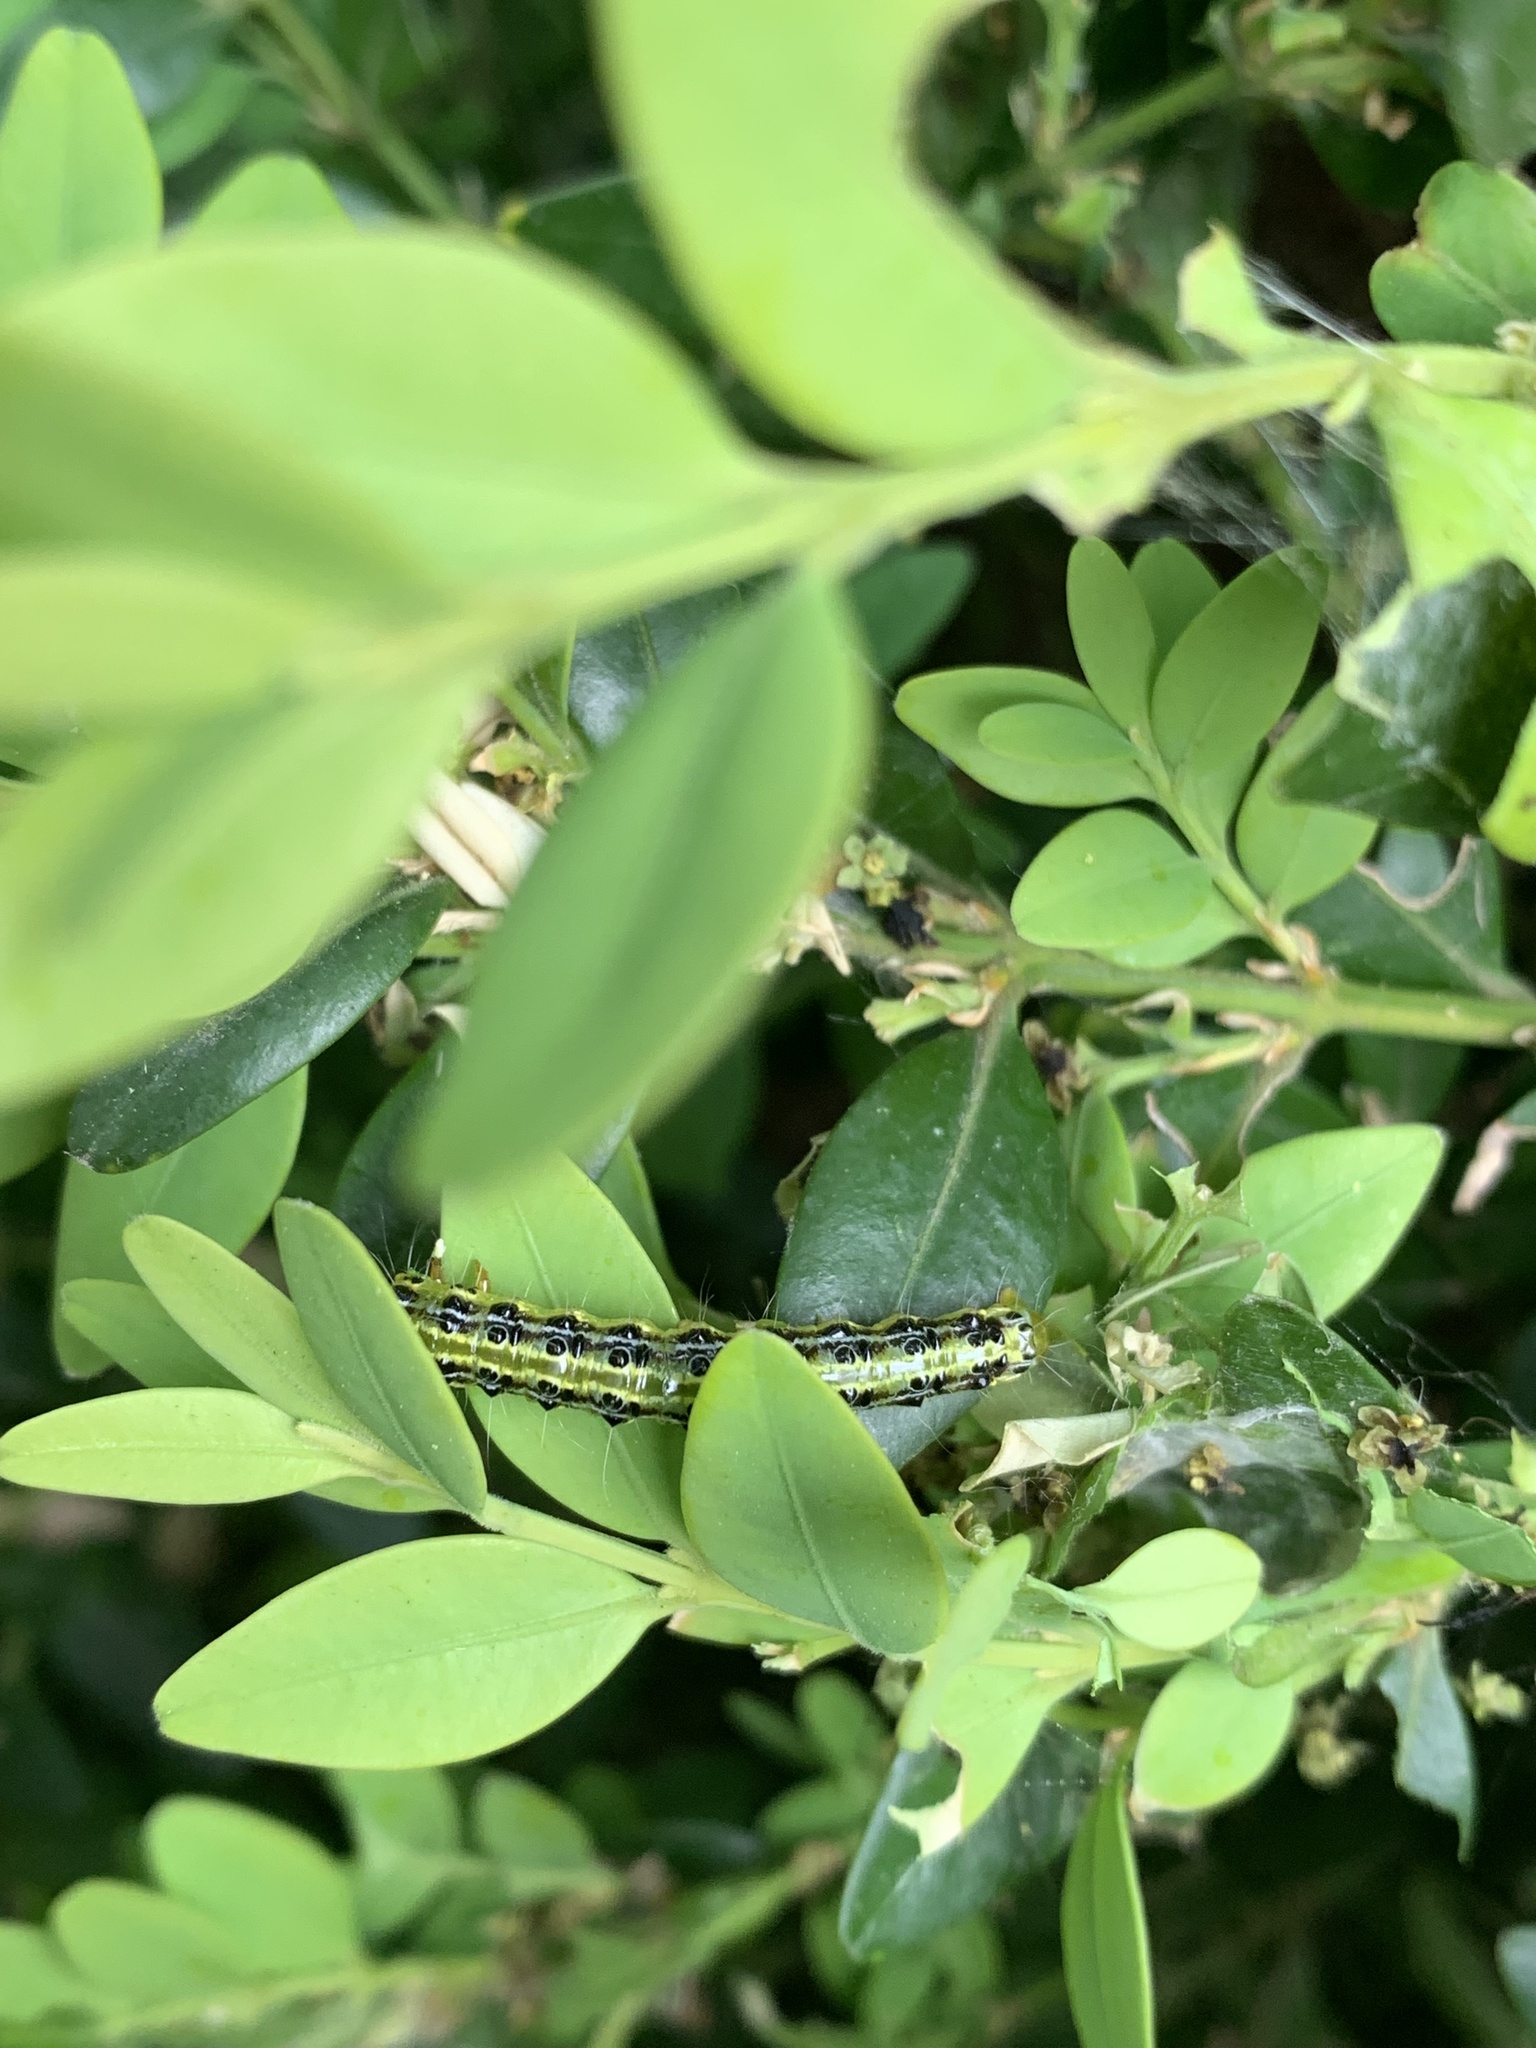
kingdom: Animalia
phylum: Arthropoda
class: Insecta
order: Lepidoptera
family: Crambidae
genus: Cydalima
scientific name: Cydalima perspectalis
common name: Box tree moth
